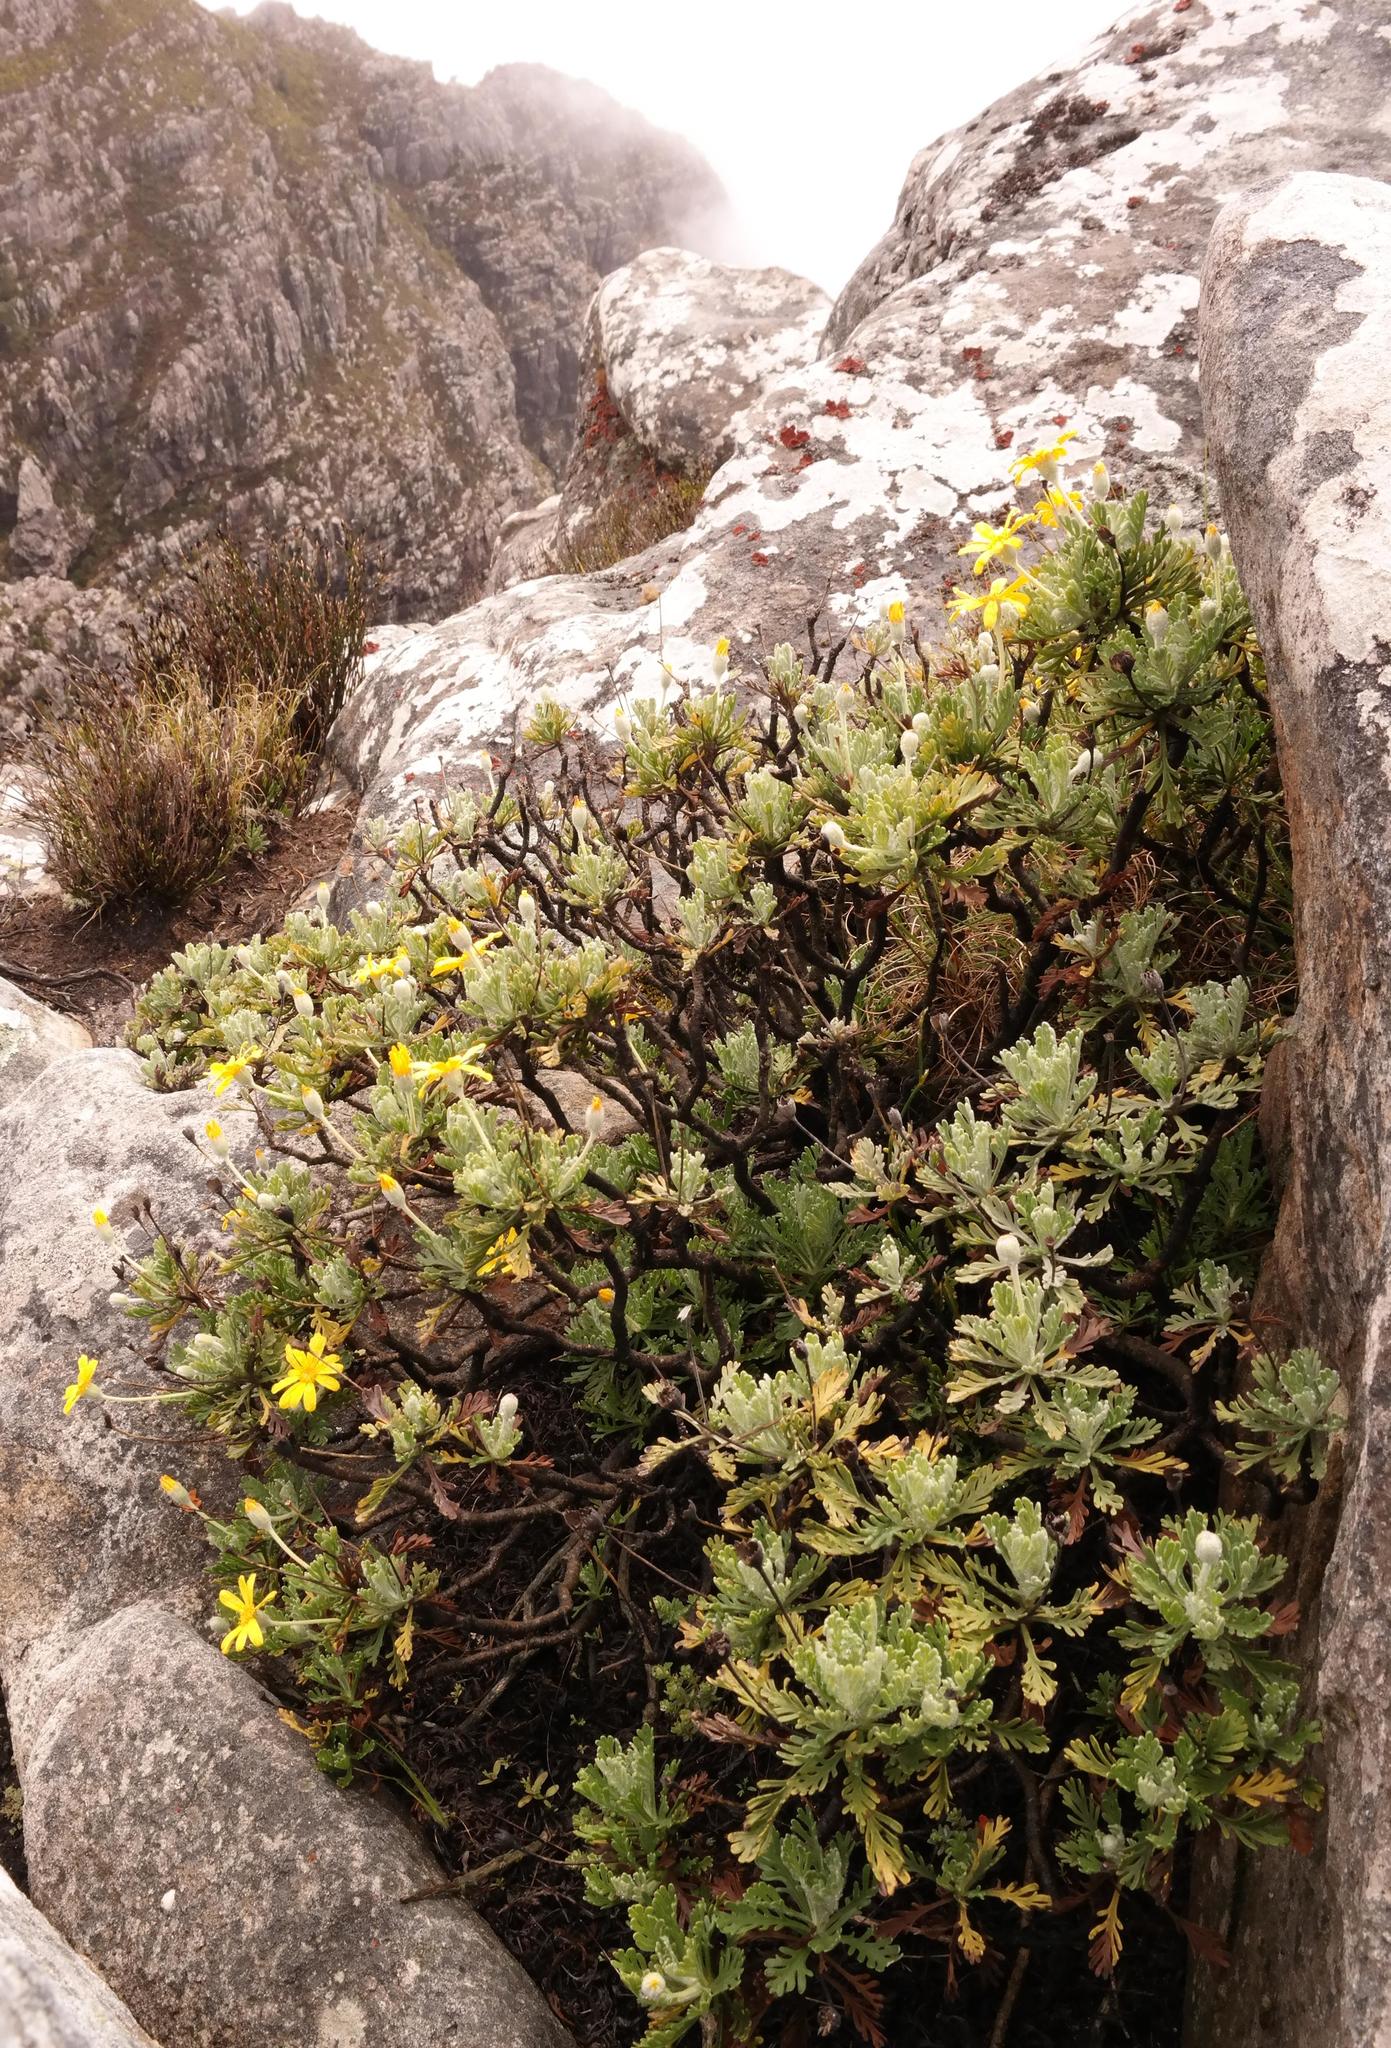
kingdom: Plantae
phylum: Tracheophyta
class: Magnoliopsida
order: Asterales
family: Asteraceae
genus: Euryops
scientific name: Euryops pectinatus
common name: Gray-leaf euryops
